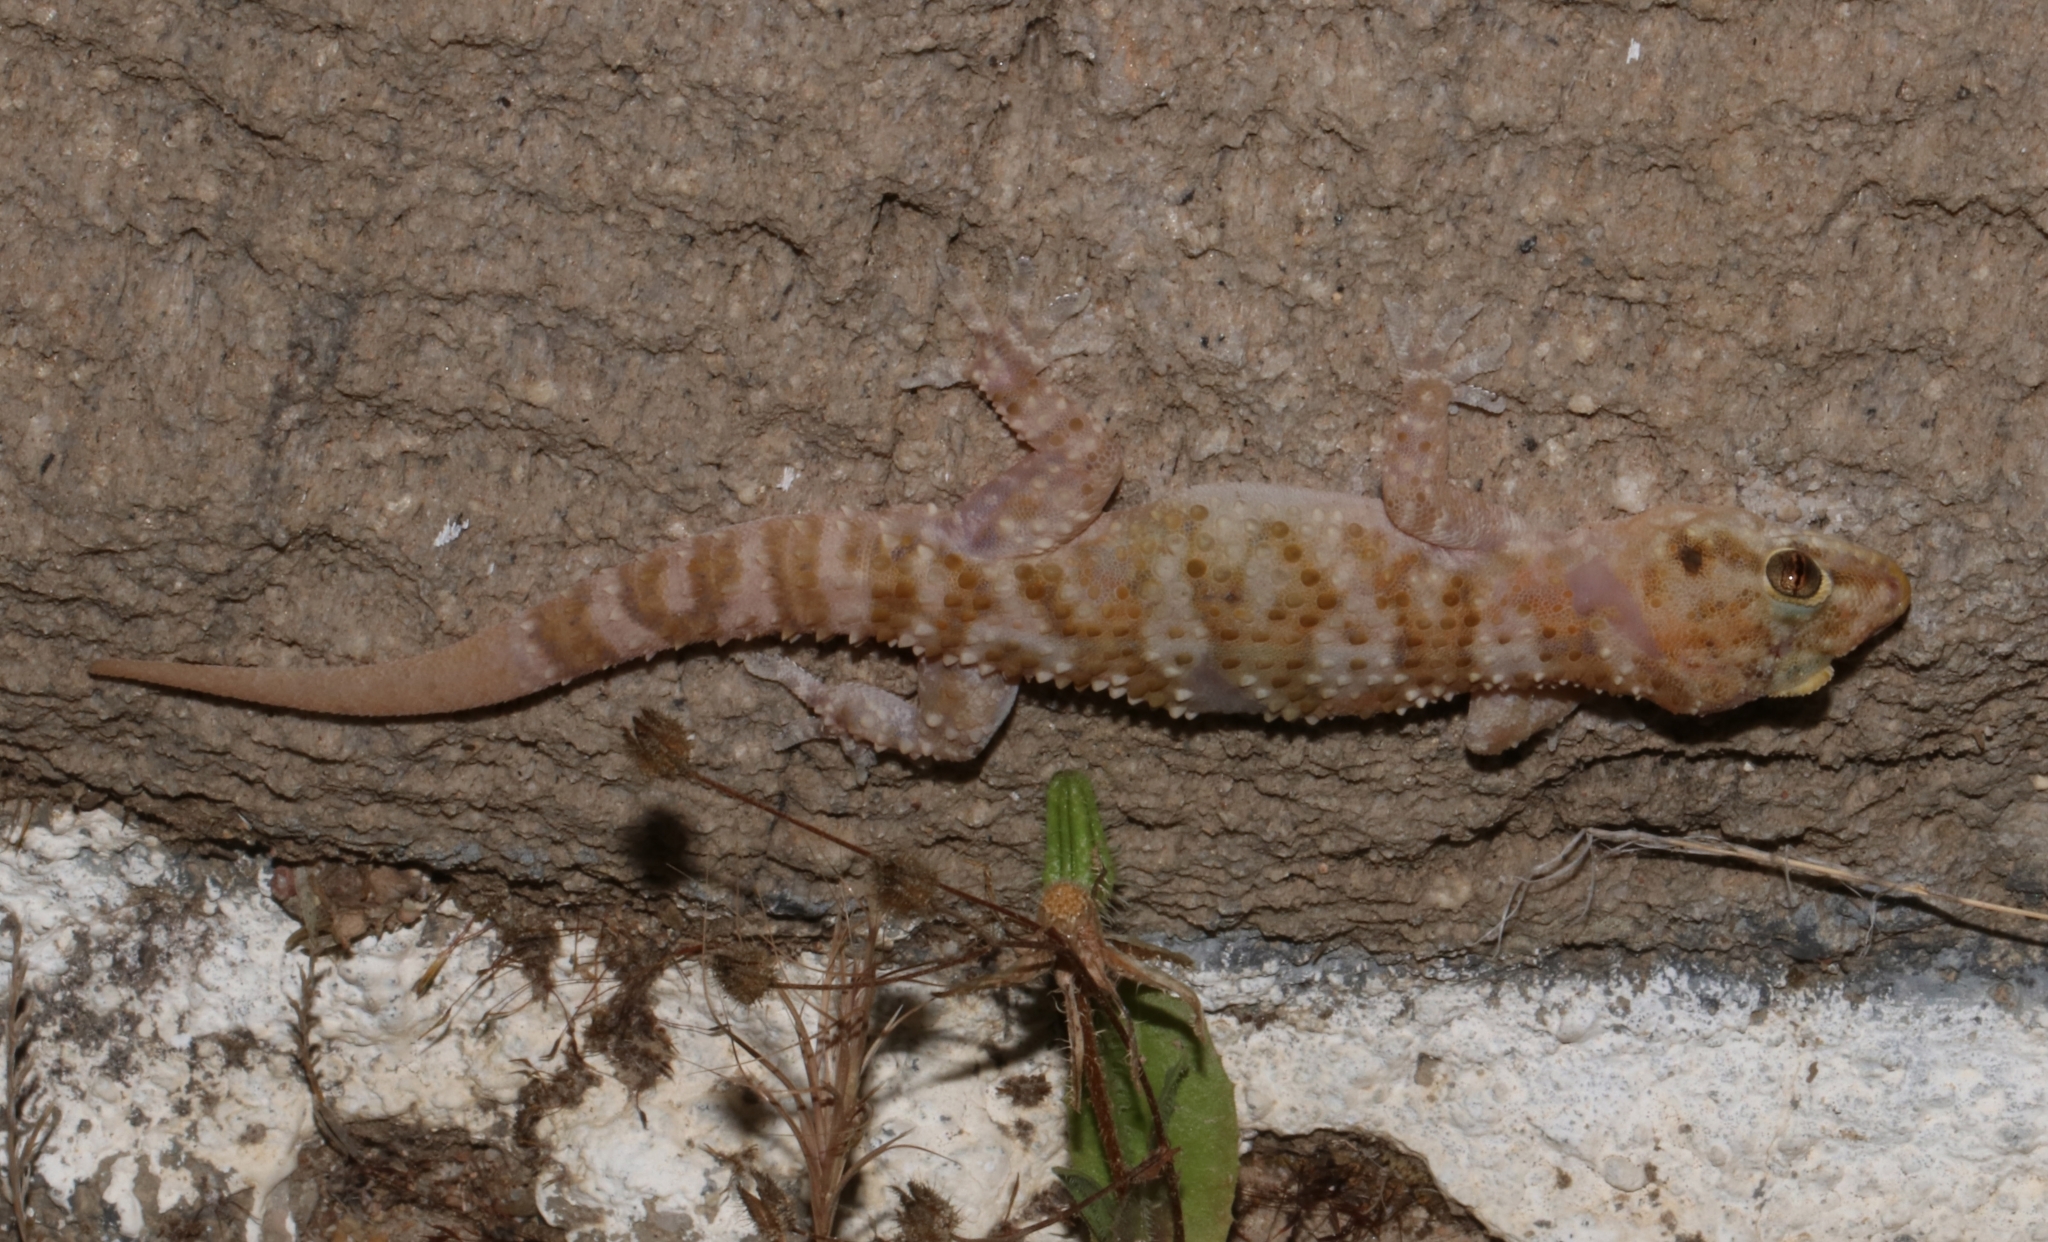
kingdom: Animalia
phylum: Chordata
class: Squamata
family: Gekkonidae
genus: Hemidactylus
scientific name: Hemidactylus turcicus
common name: Turkish gecko
